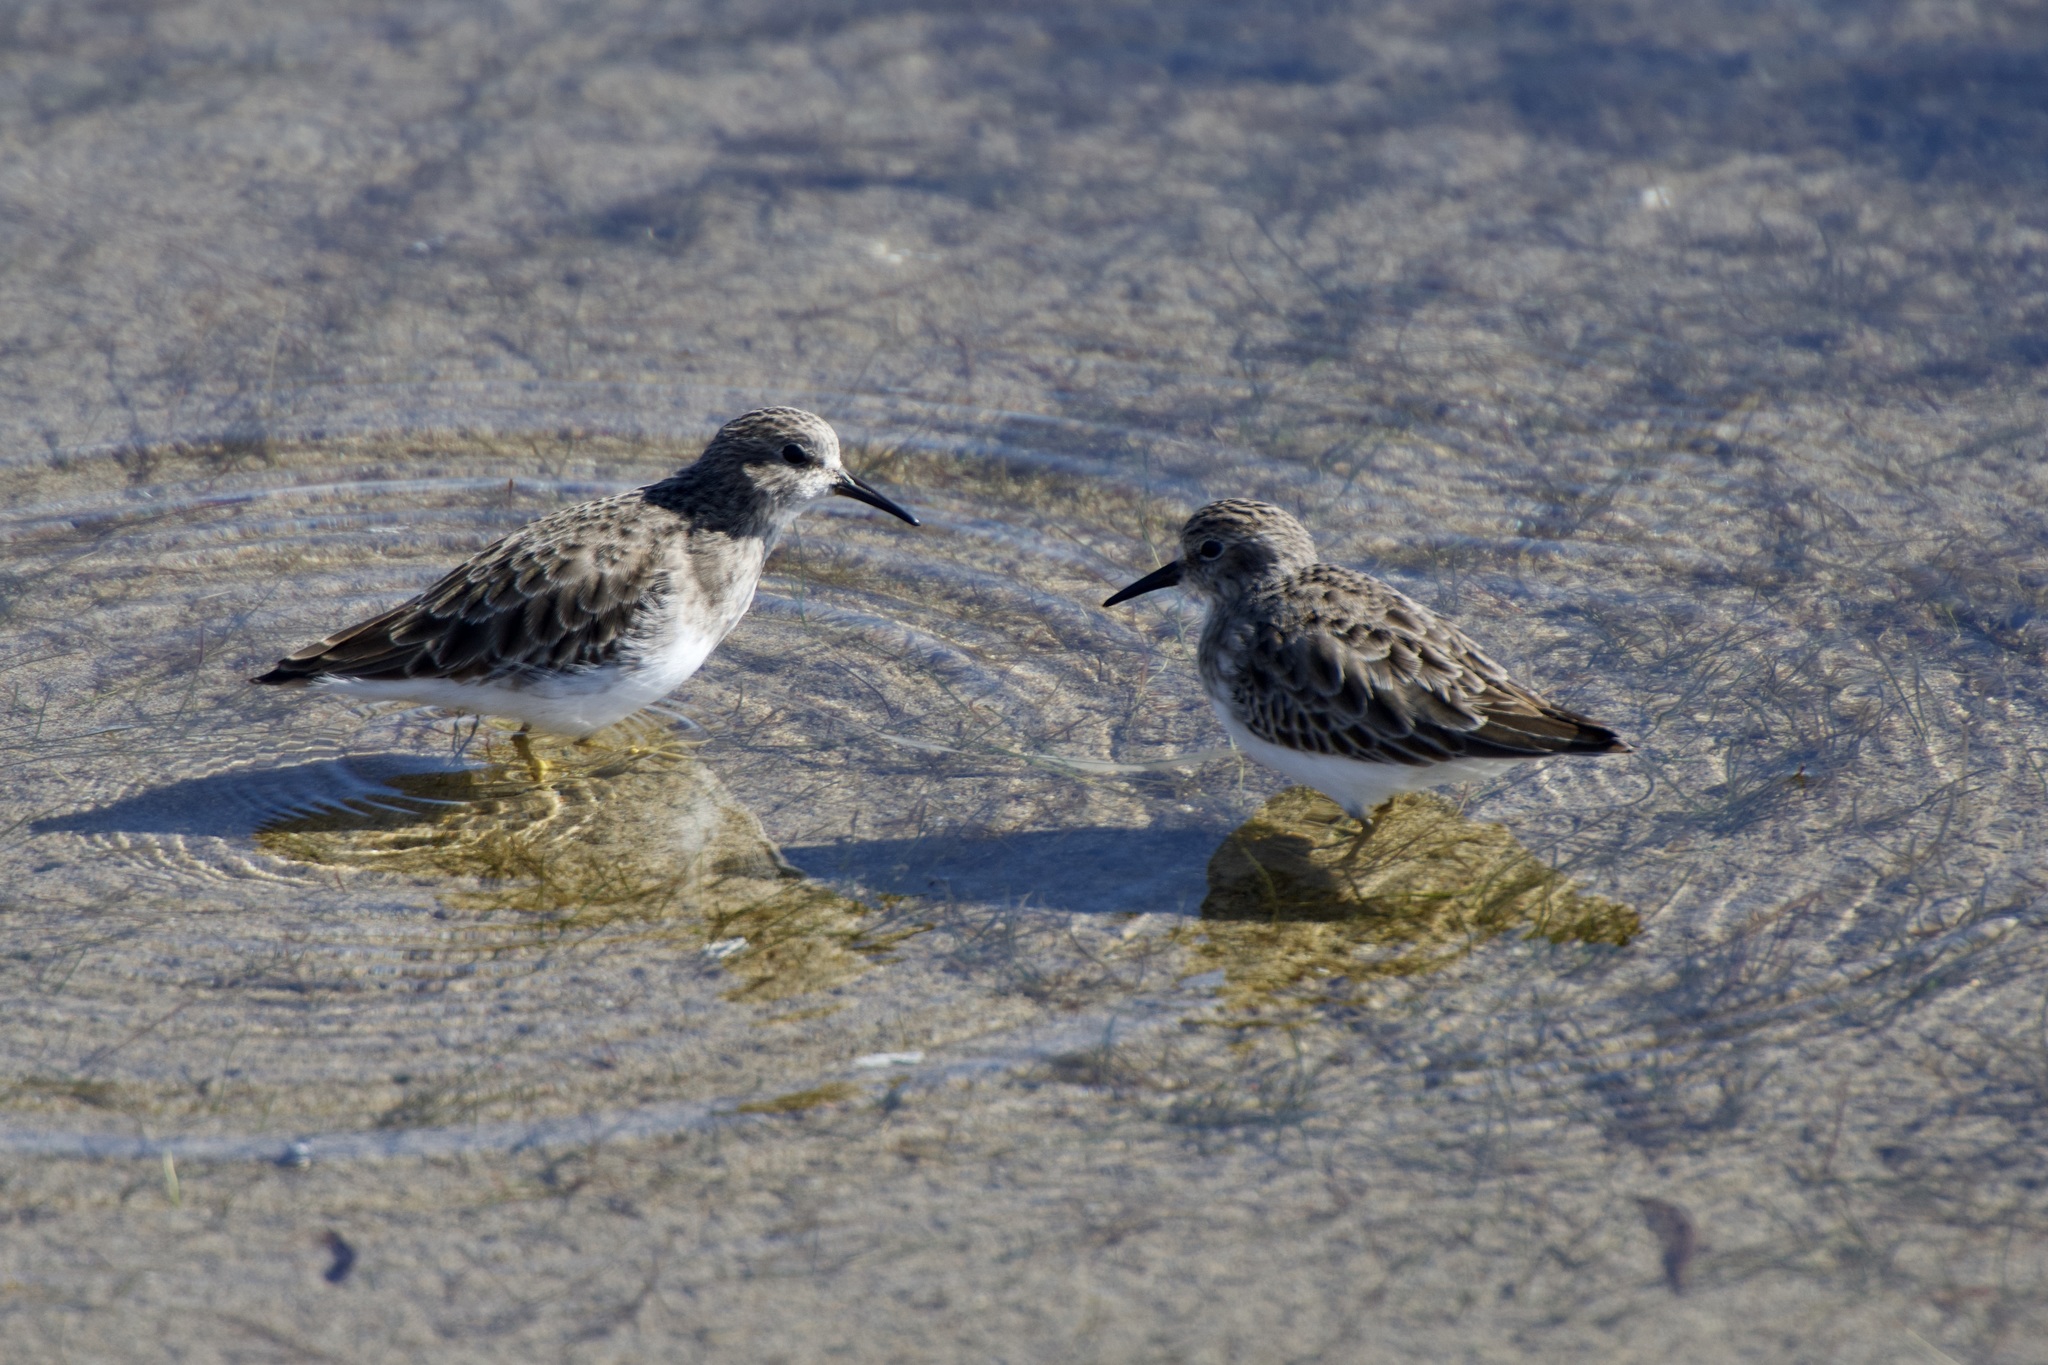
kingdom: Animalia
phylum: Chordata
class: Aves
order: Charadriiformes
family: Scolopacidae
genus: Calidris
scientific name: Calidris minutilla
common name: Least sandpiper
